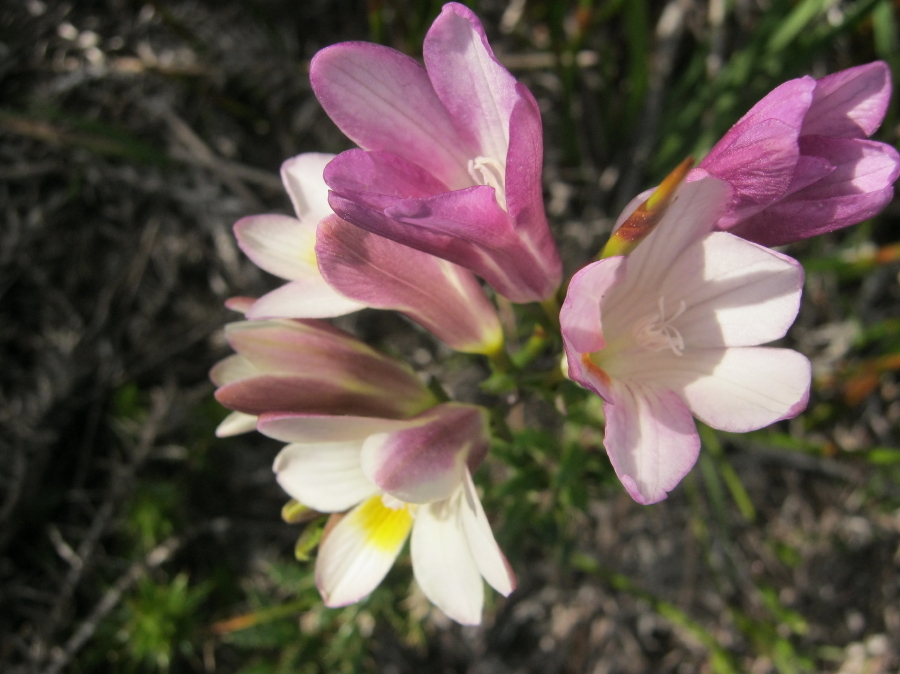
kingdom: Plantae
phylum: Tracheophyta
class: Liliopsida
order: Asparagales
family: Iridaceae
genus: Freesia
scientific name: Freesia leichtlinii
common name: Freesia
